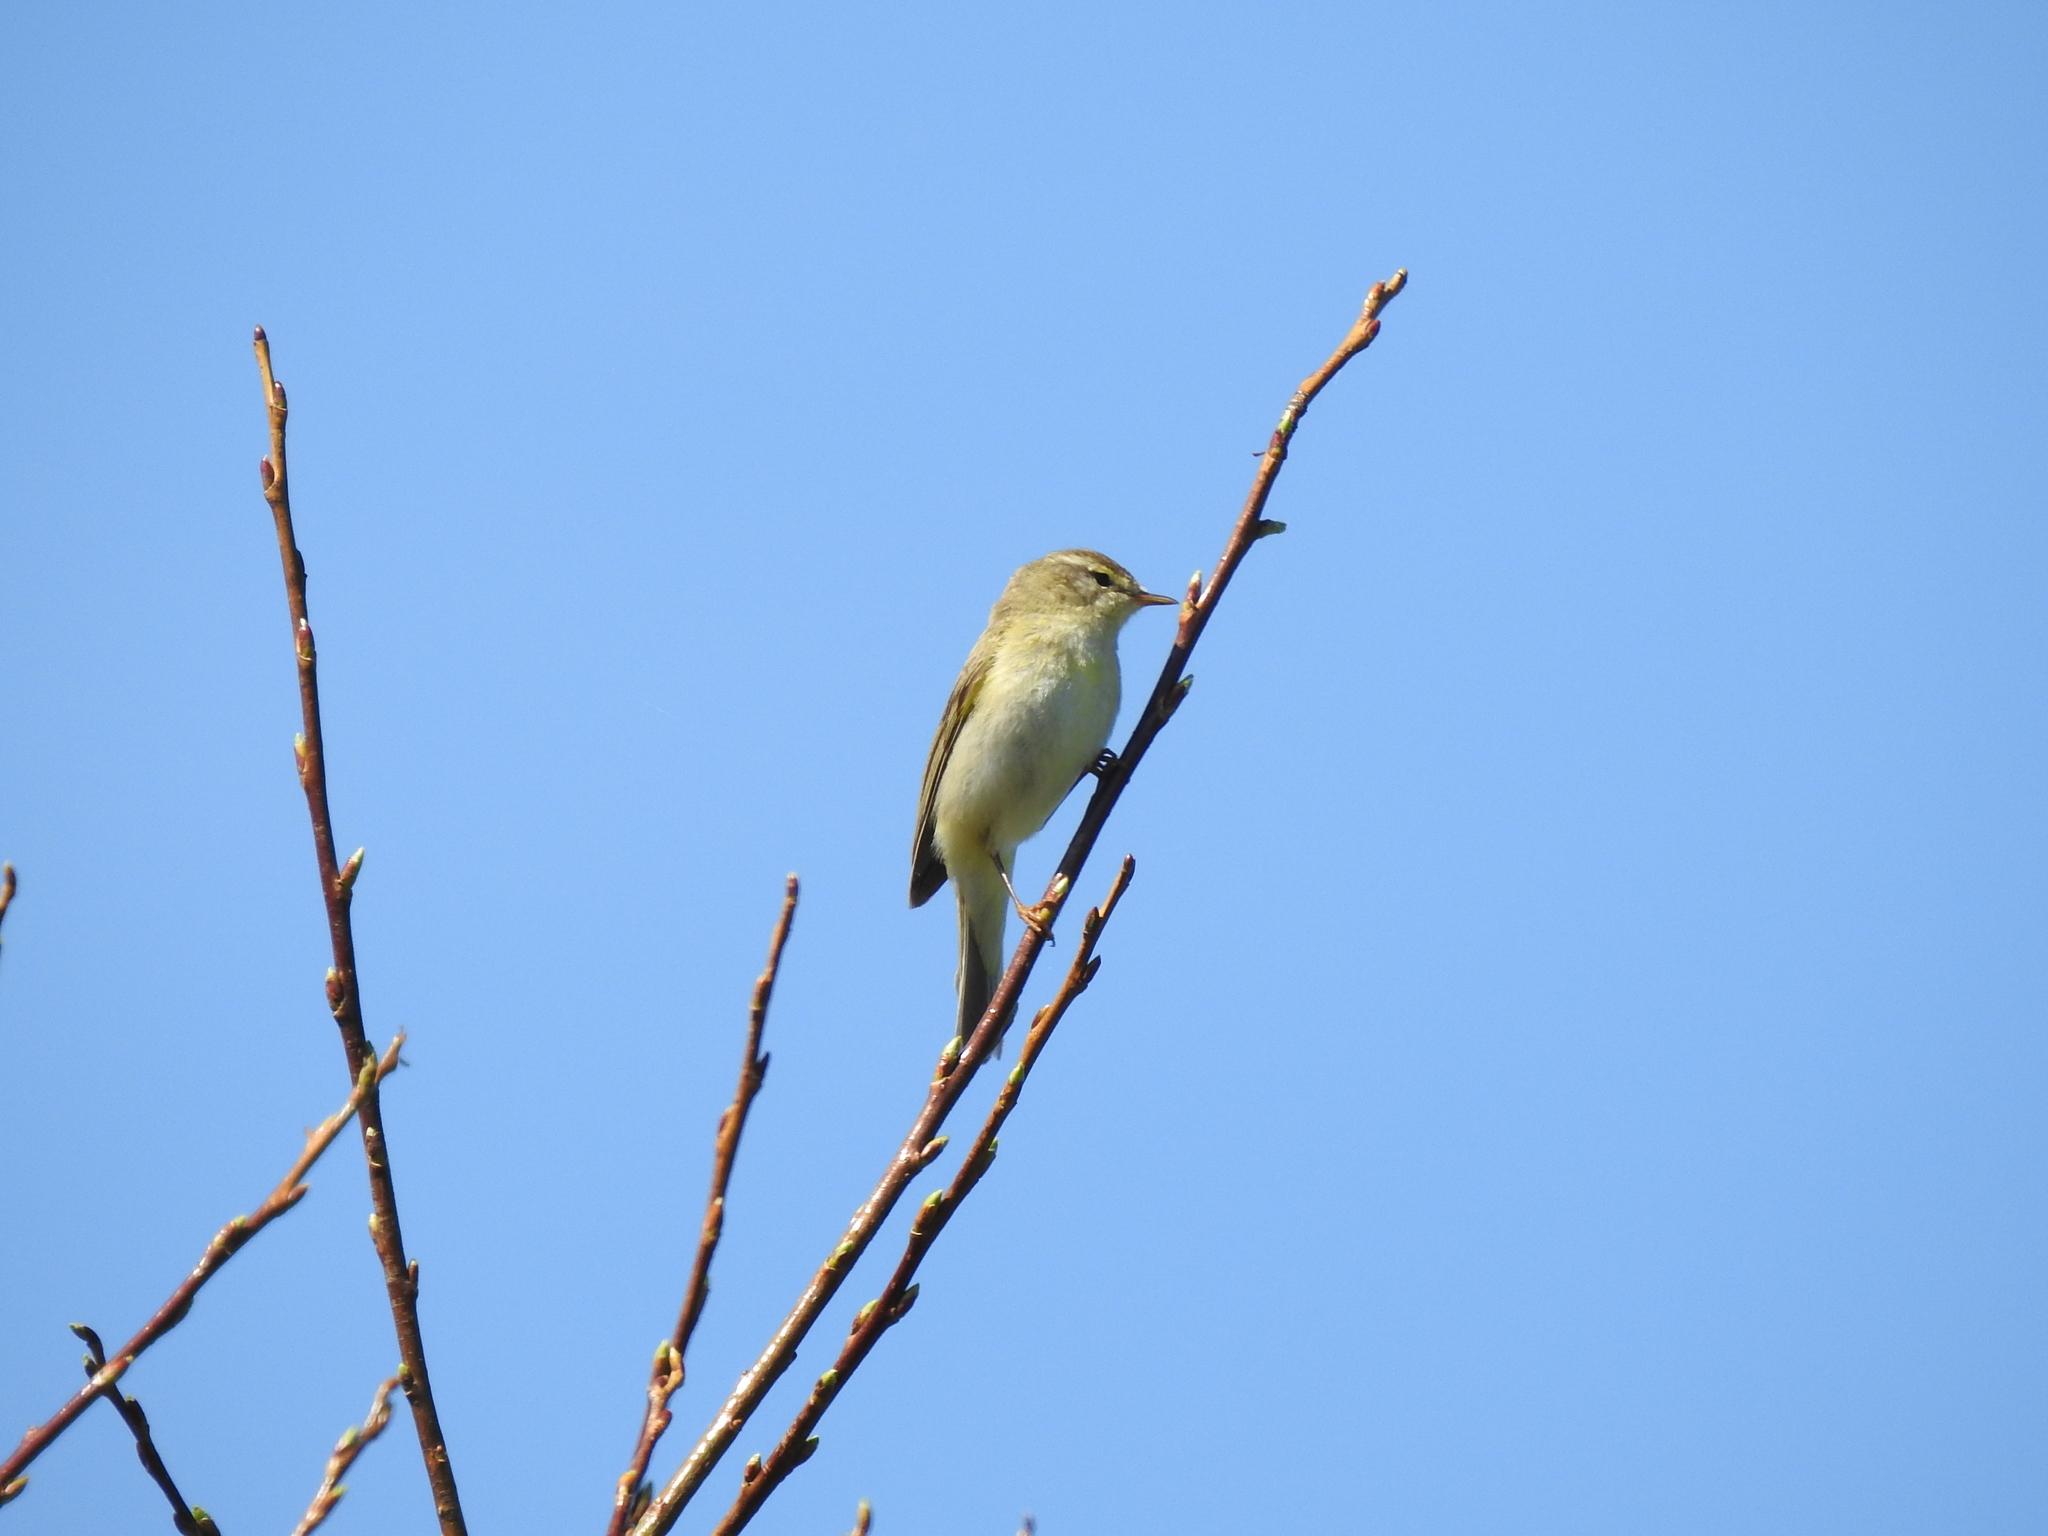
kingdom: Animalia
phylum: Chordata
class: Aves
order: Passeriformes
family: Phylloscopidae
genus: Phylloscopus
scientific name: Phylloscopus trochilus
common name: Willow warbler
